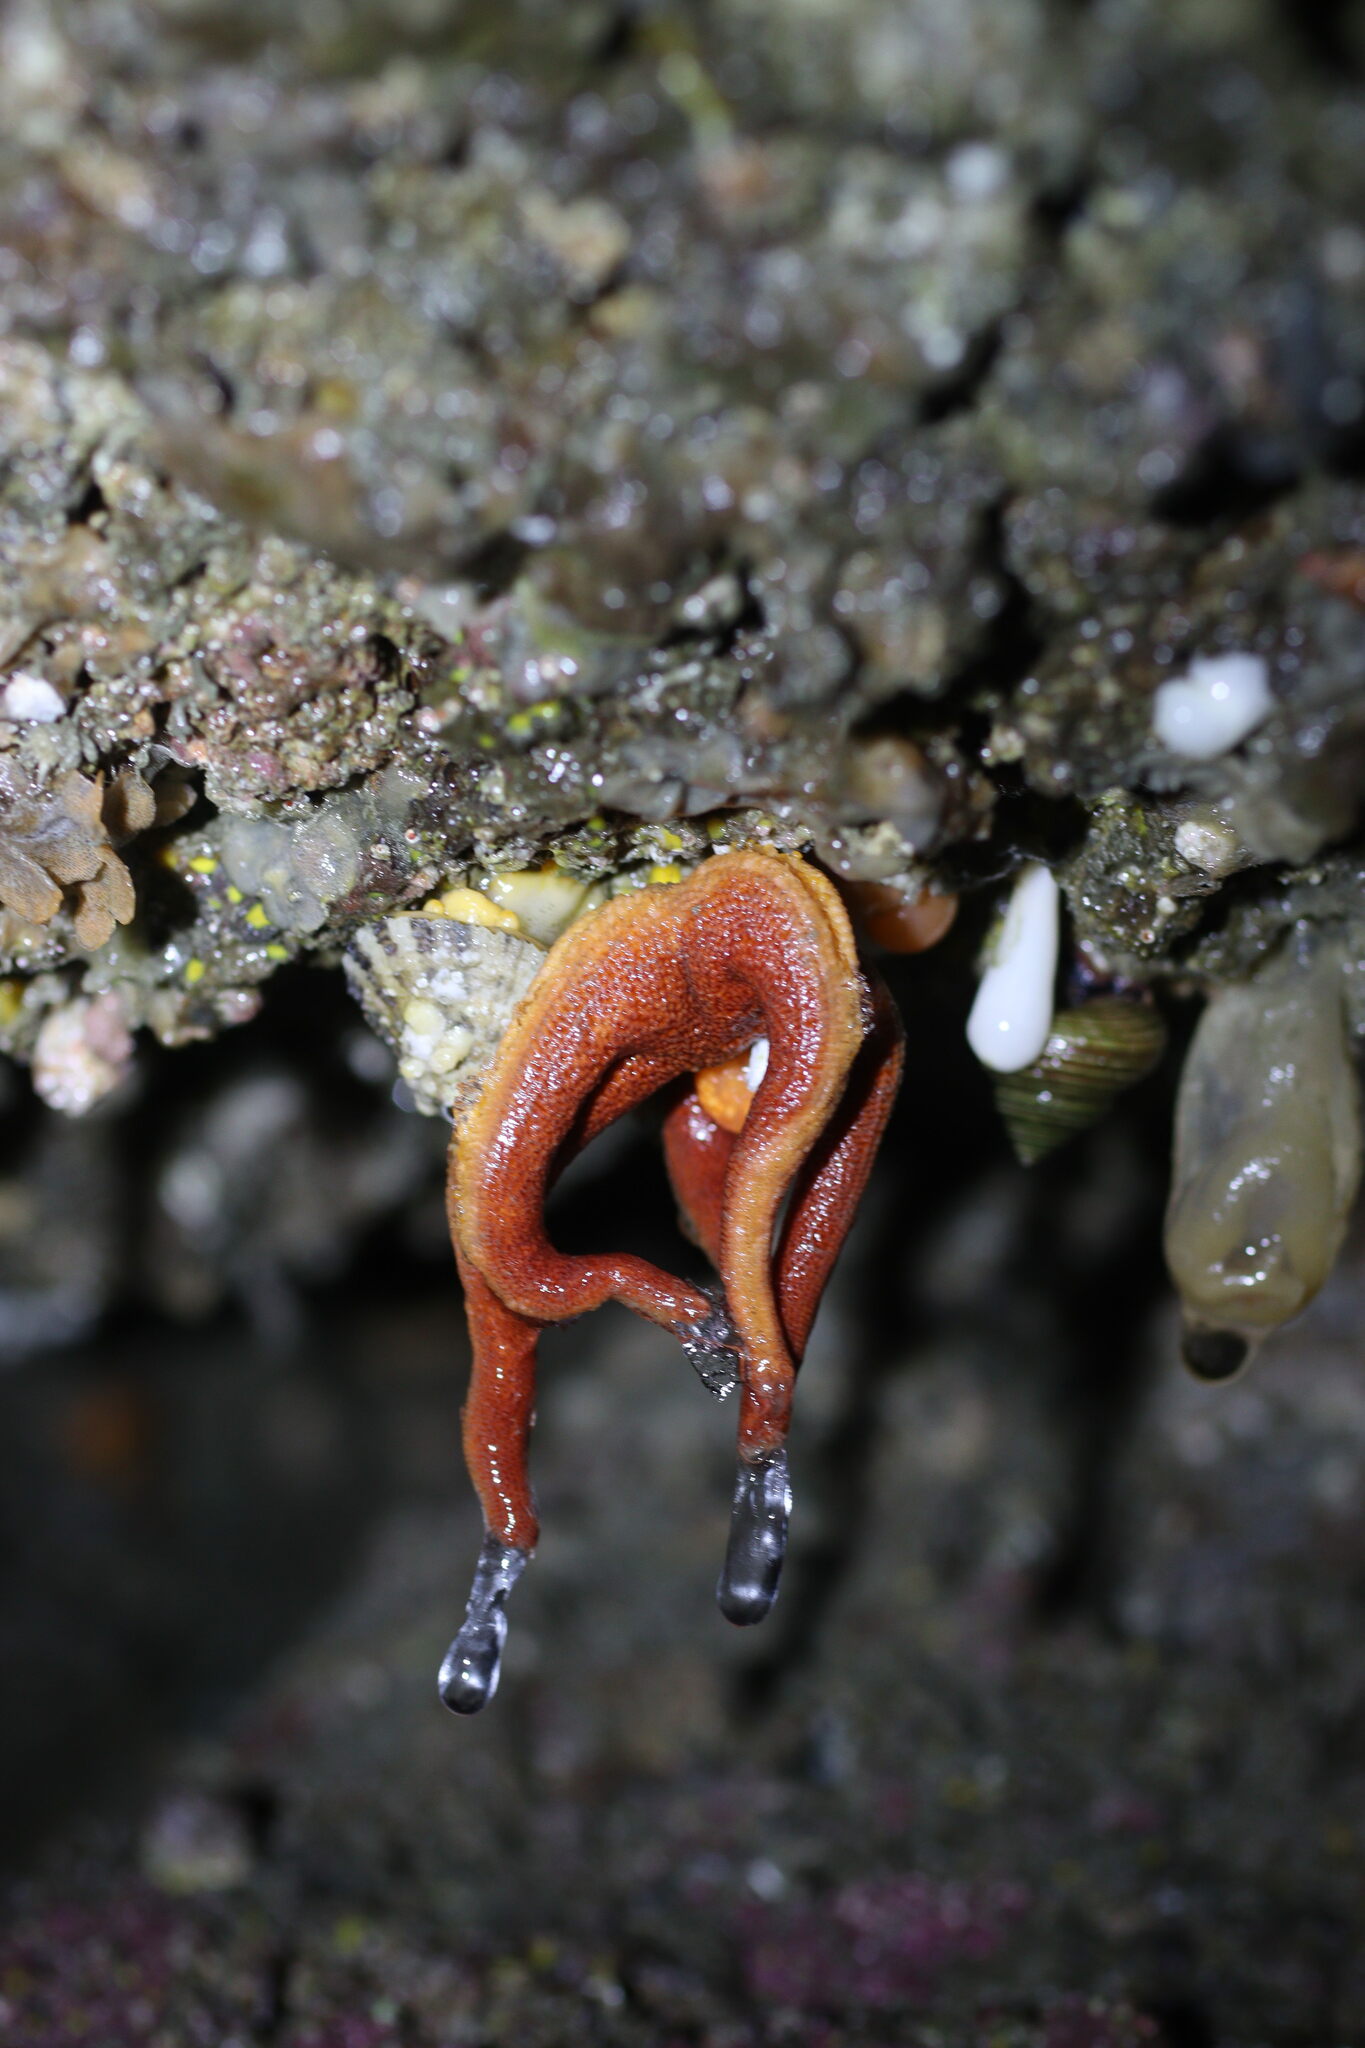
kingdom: Animalia
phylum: Echinodermata
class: Asteroidea
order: Spinulosida
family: Echinasteridae
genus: Henricia
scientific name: Henricia
